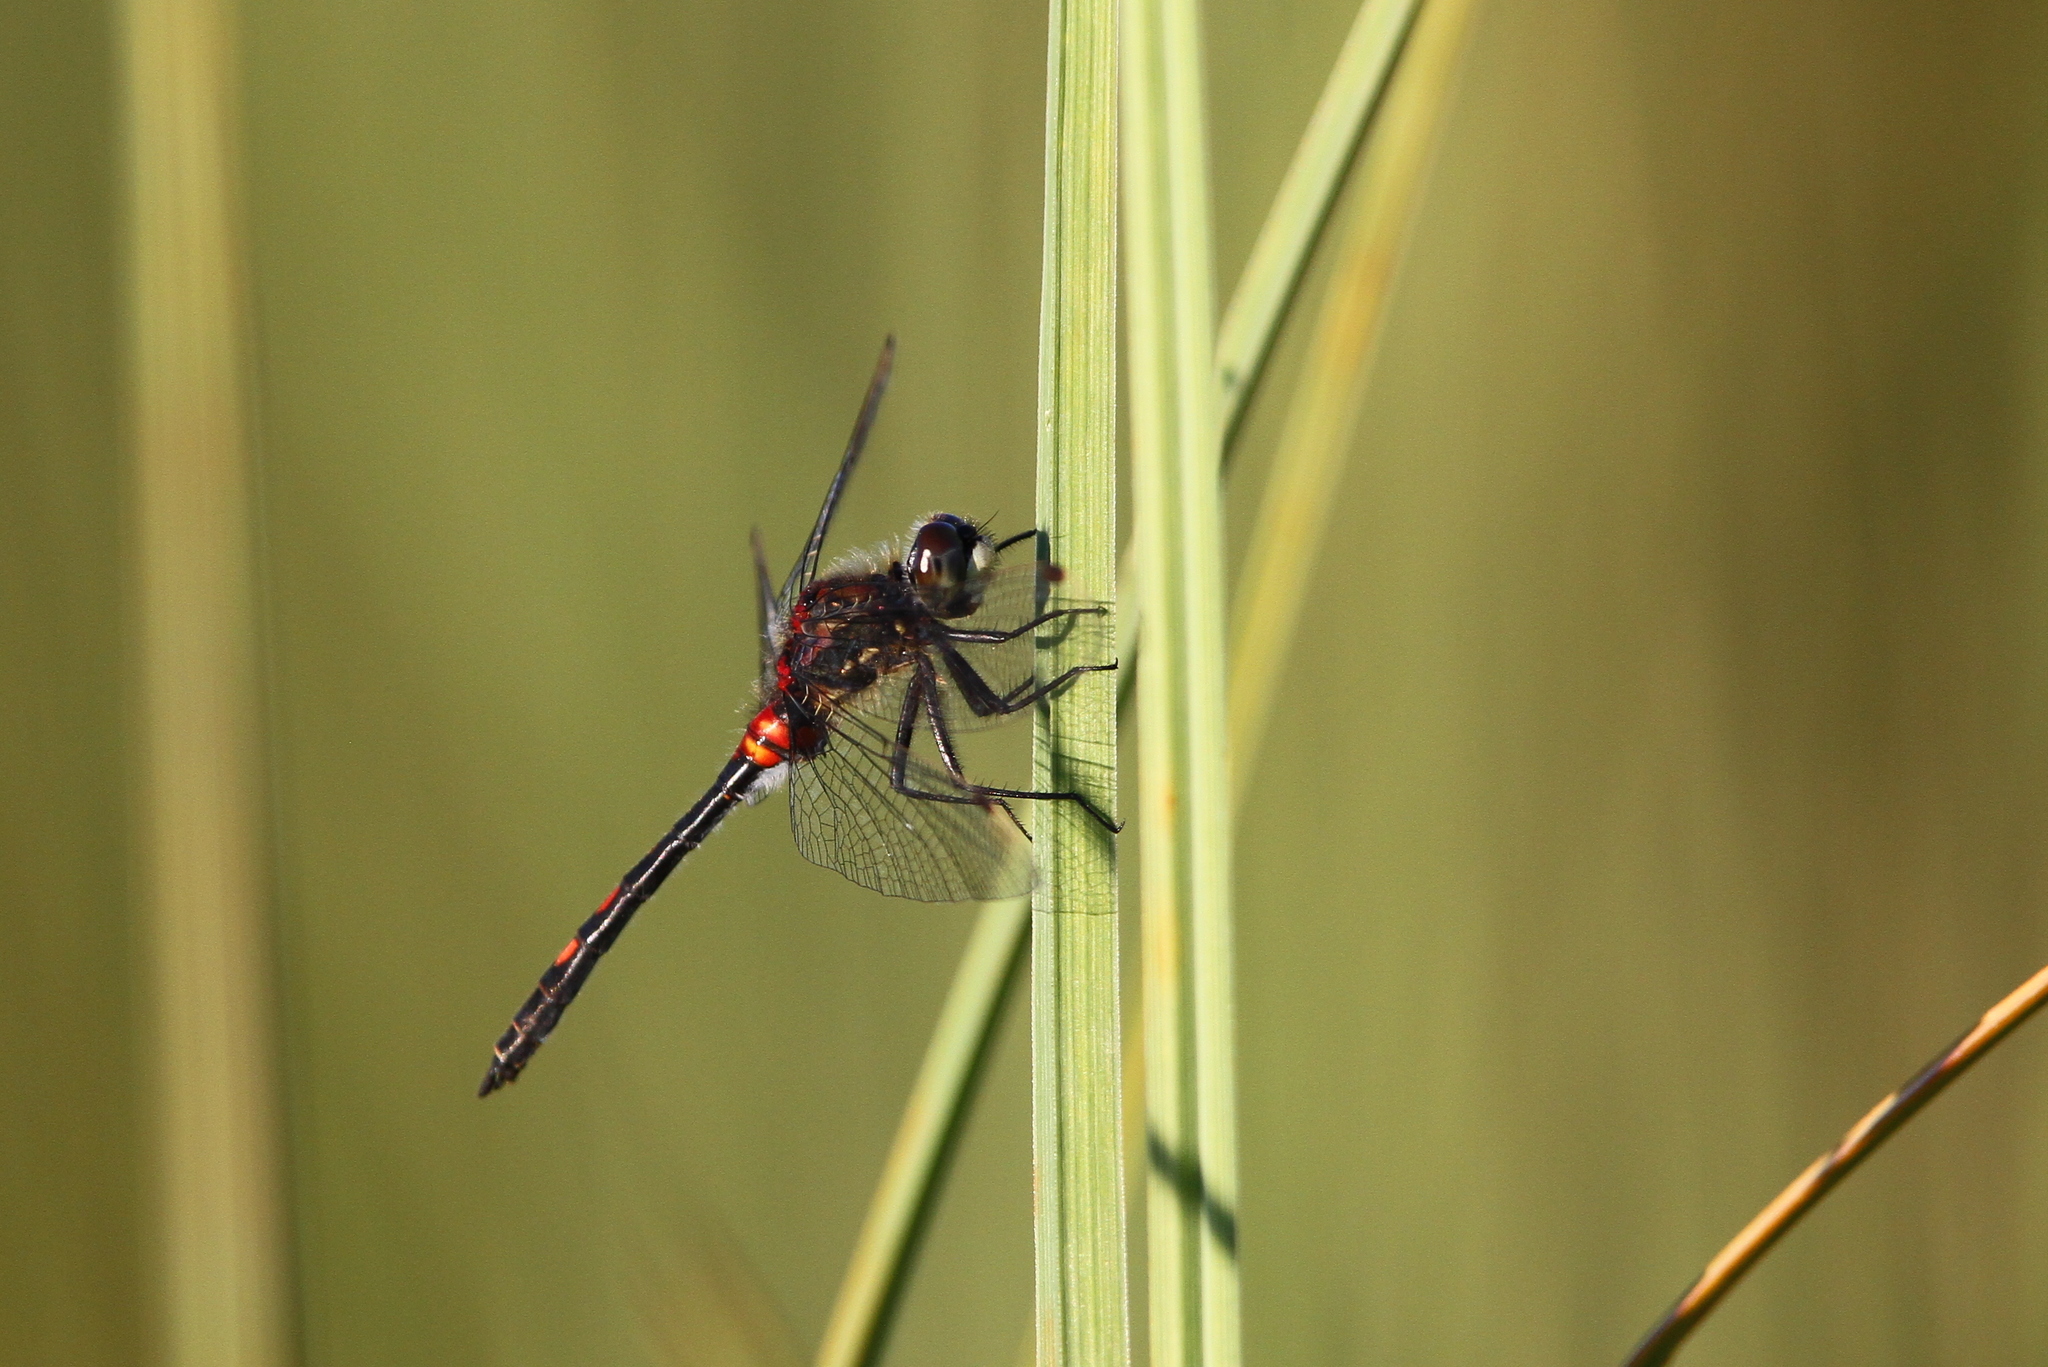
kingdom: Animalia
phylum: Arthropoda
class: Insecta
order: Odonata
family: Libellulidae
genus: Leucorrhinia
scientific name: Leucorrhinia dubia
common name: White-faced darter
